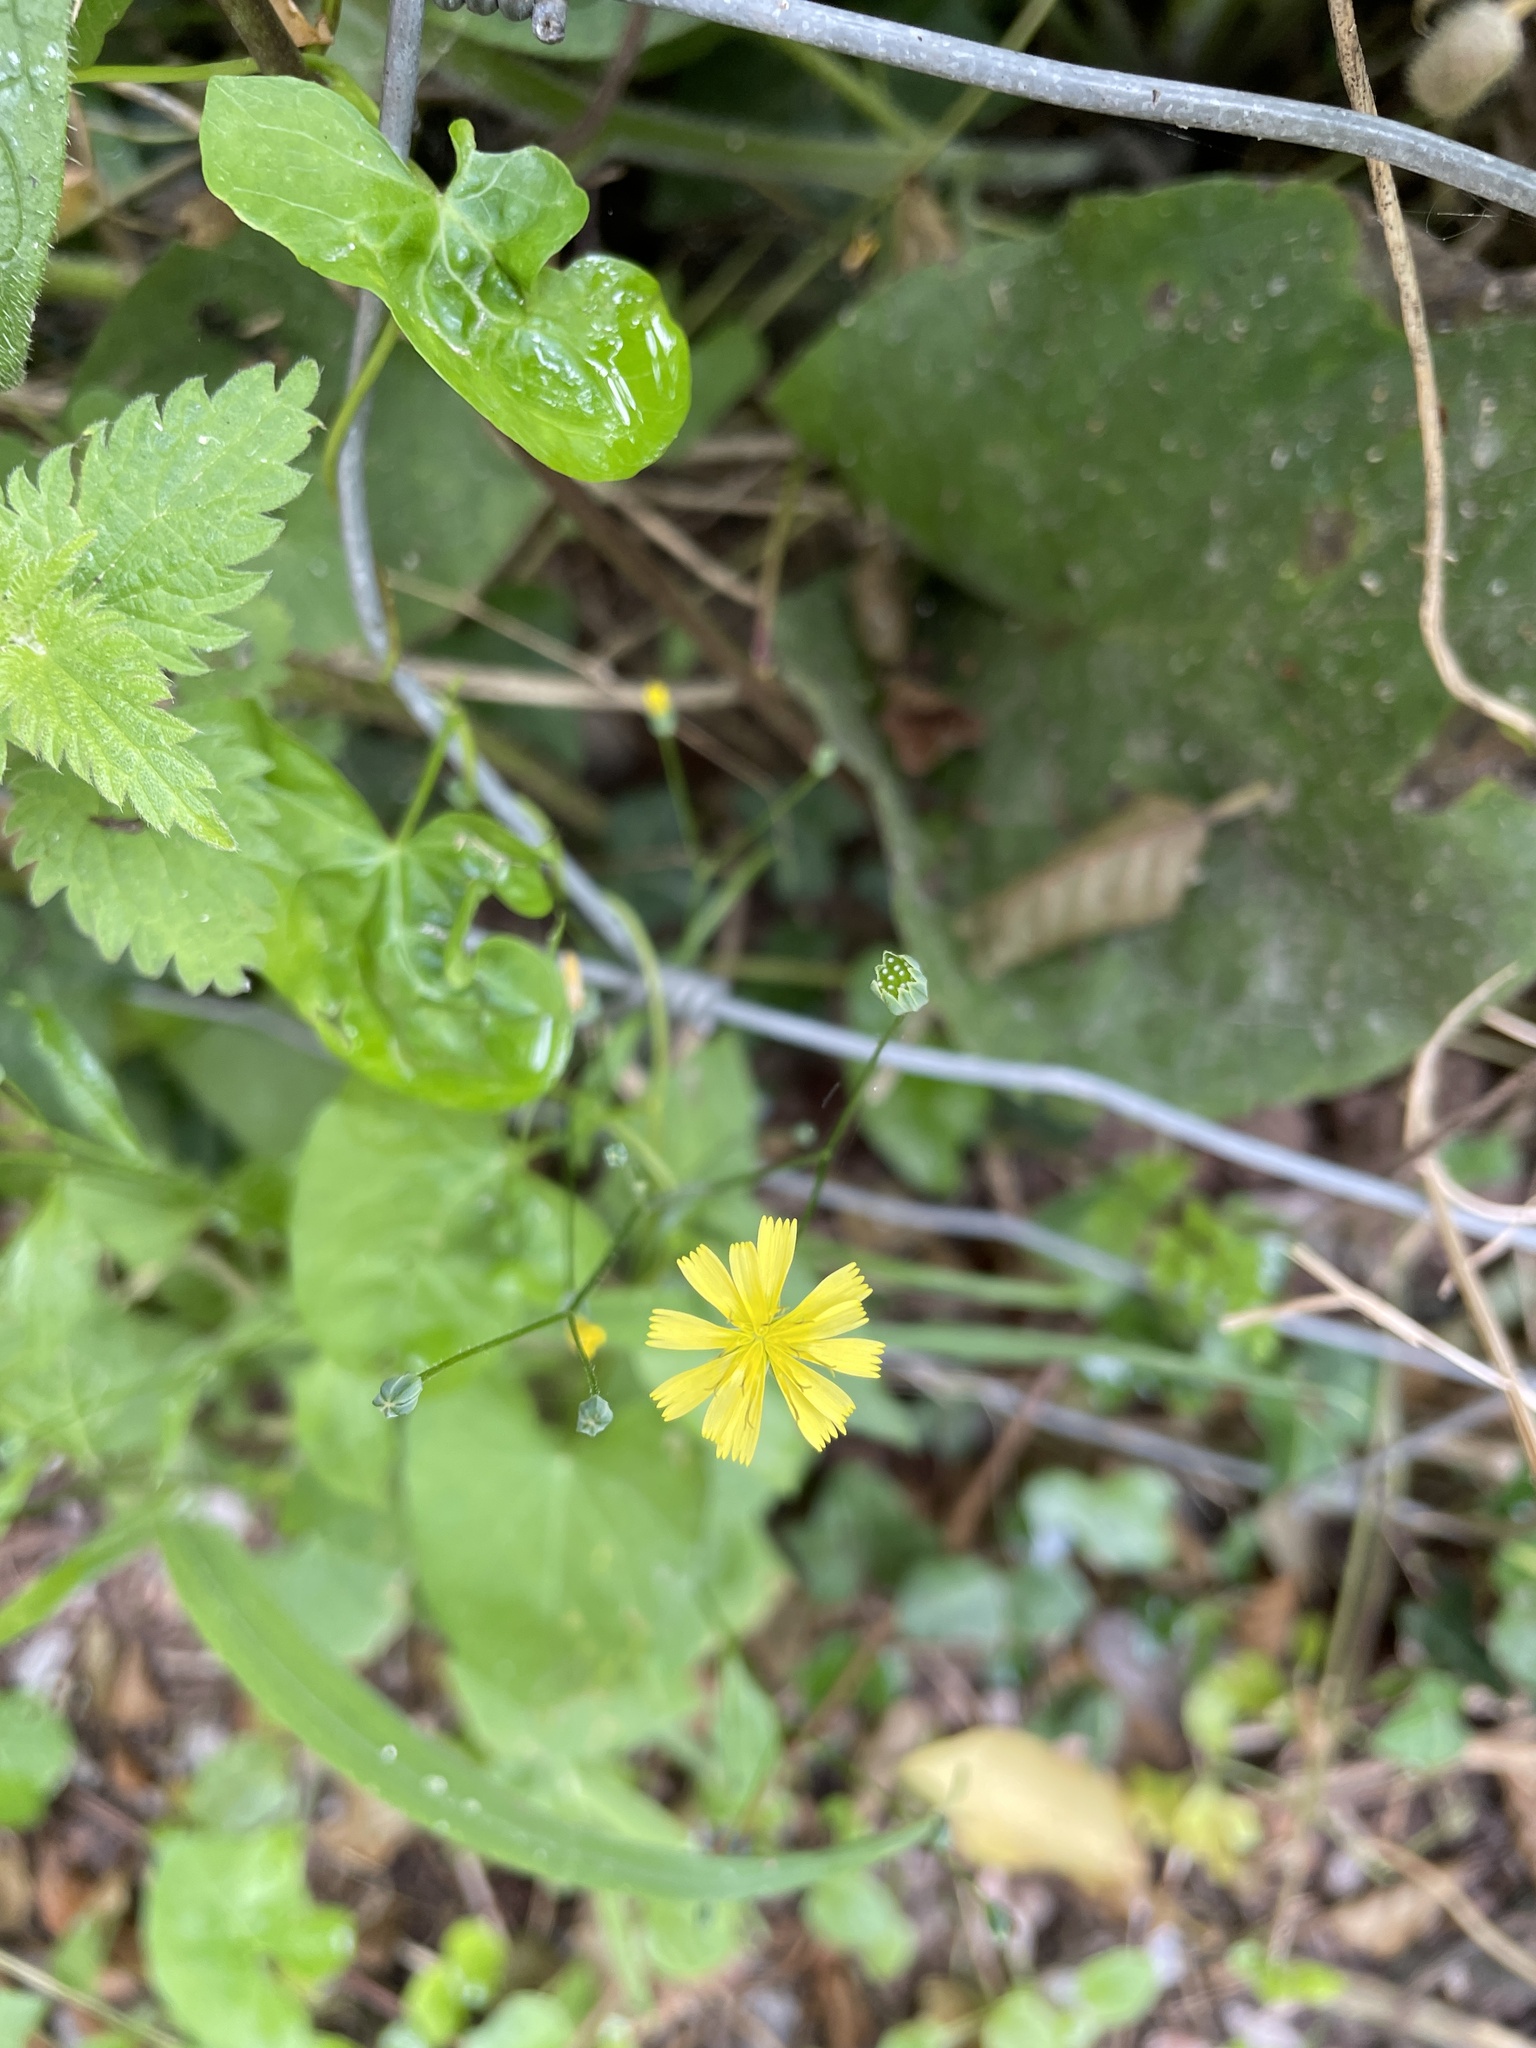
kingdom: Plantae
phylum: Tracheophyta
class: Magnoliopsida
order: Asterales
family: Asteraceae
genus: Lapsana
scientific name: Lapsana communis
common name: Nipplewort
